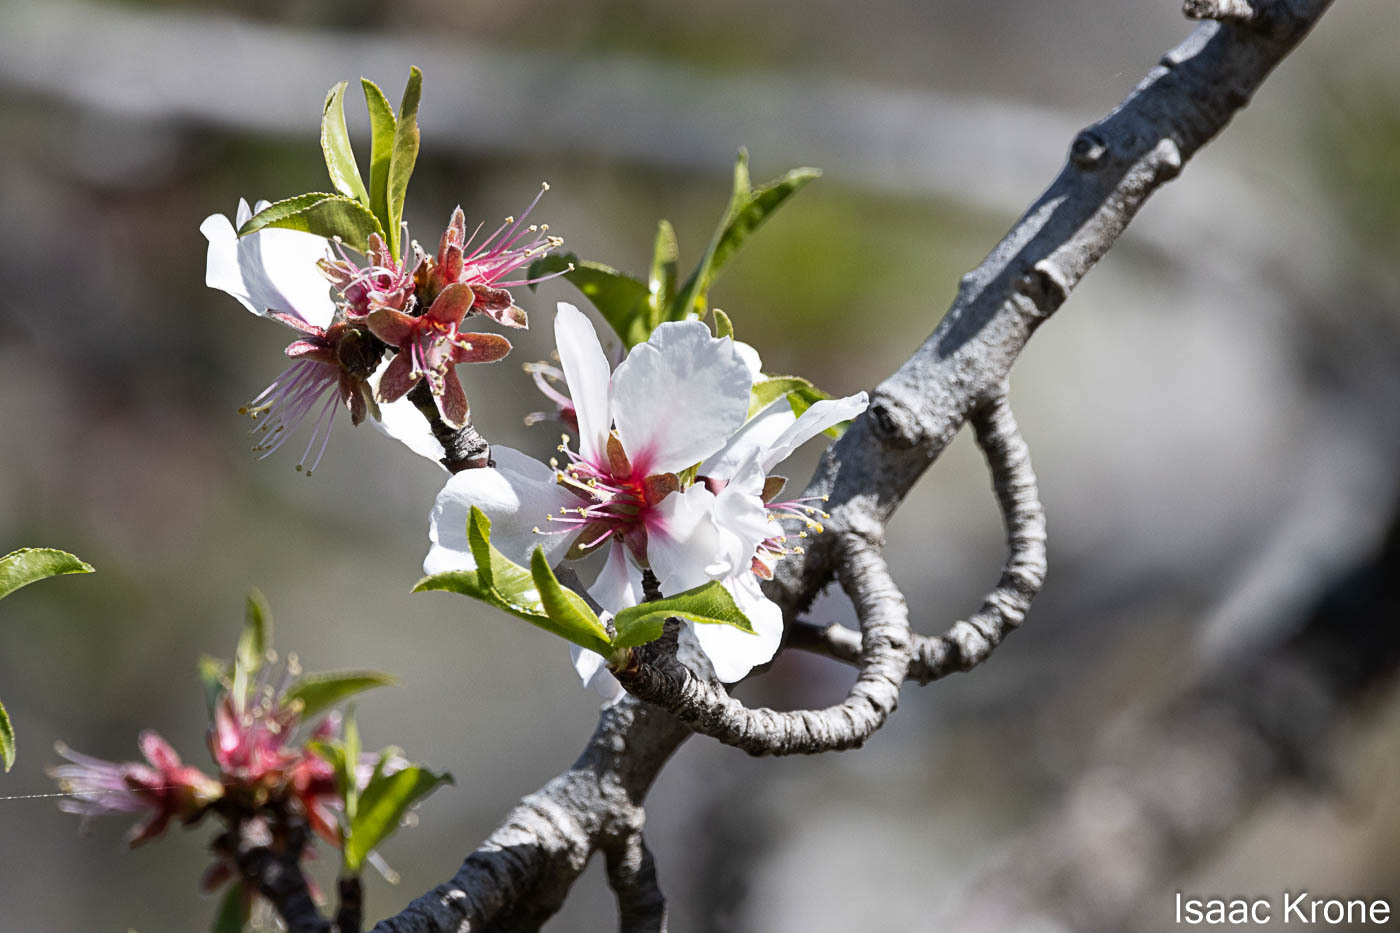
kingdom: Plantae
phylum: Tracheophyta
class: Magnoliopsida
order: Rosales
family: Rosaceae
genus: Prunus
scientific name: Prunus amygdalus
